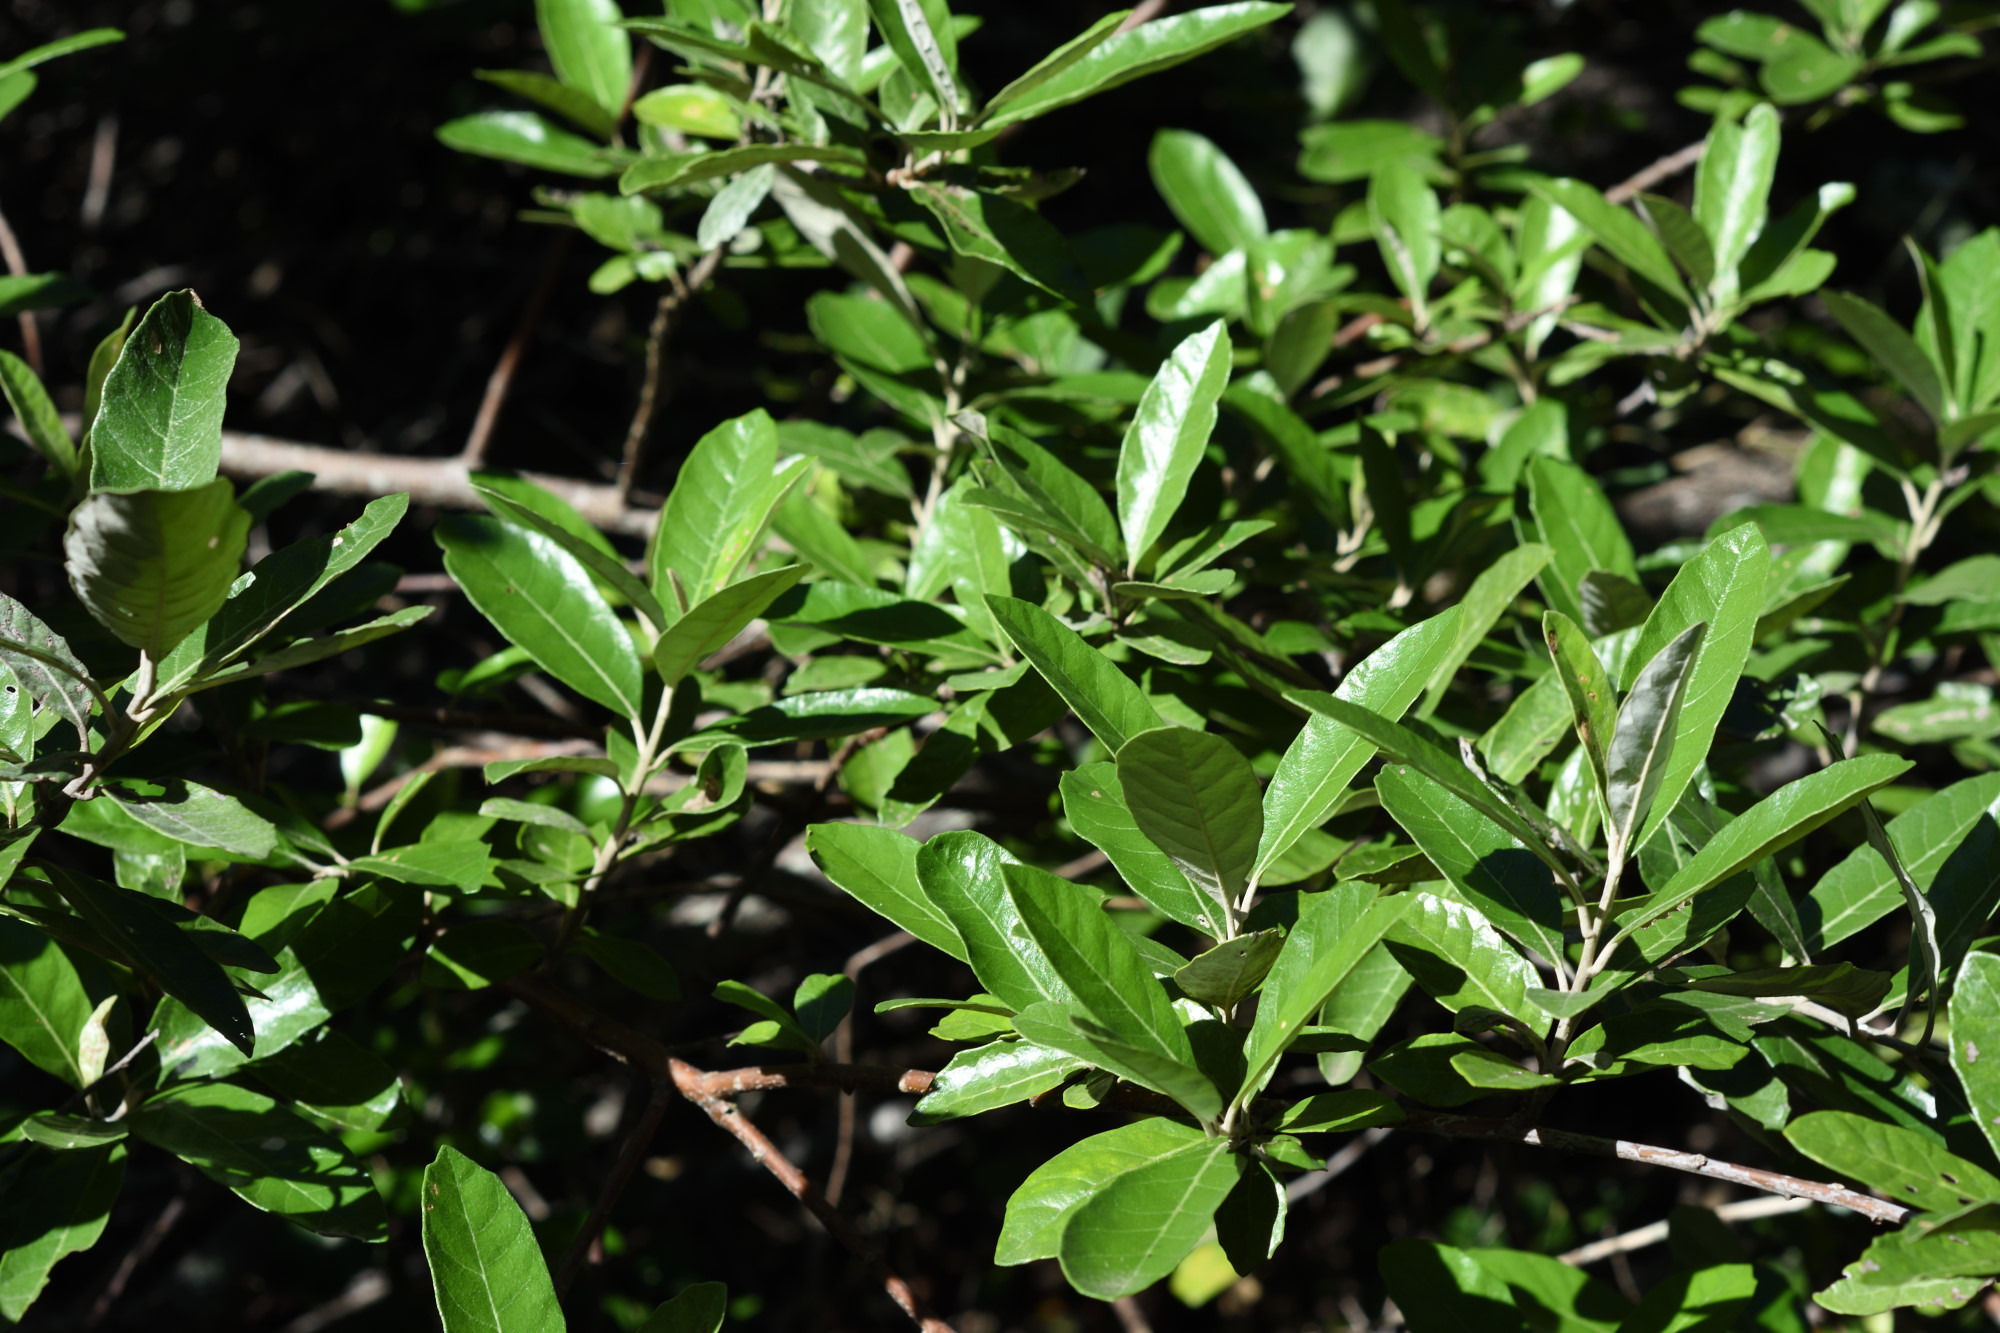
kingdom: Plantae
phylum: Tracheophyta
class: Magnoliopsida
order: Asterales
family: Asteraceae
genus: Brachylaena
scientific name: Brachylaena discolor
